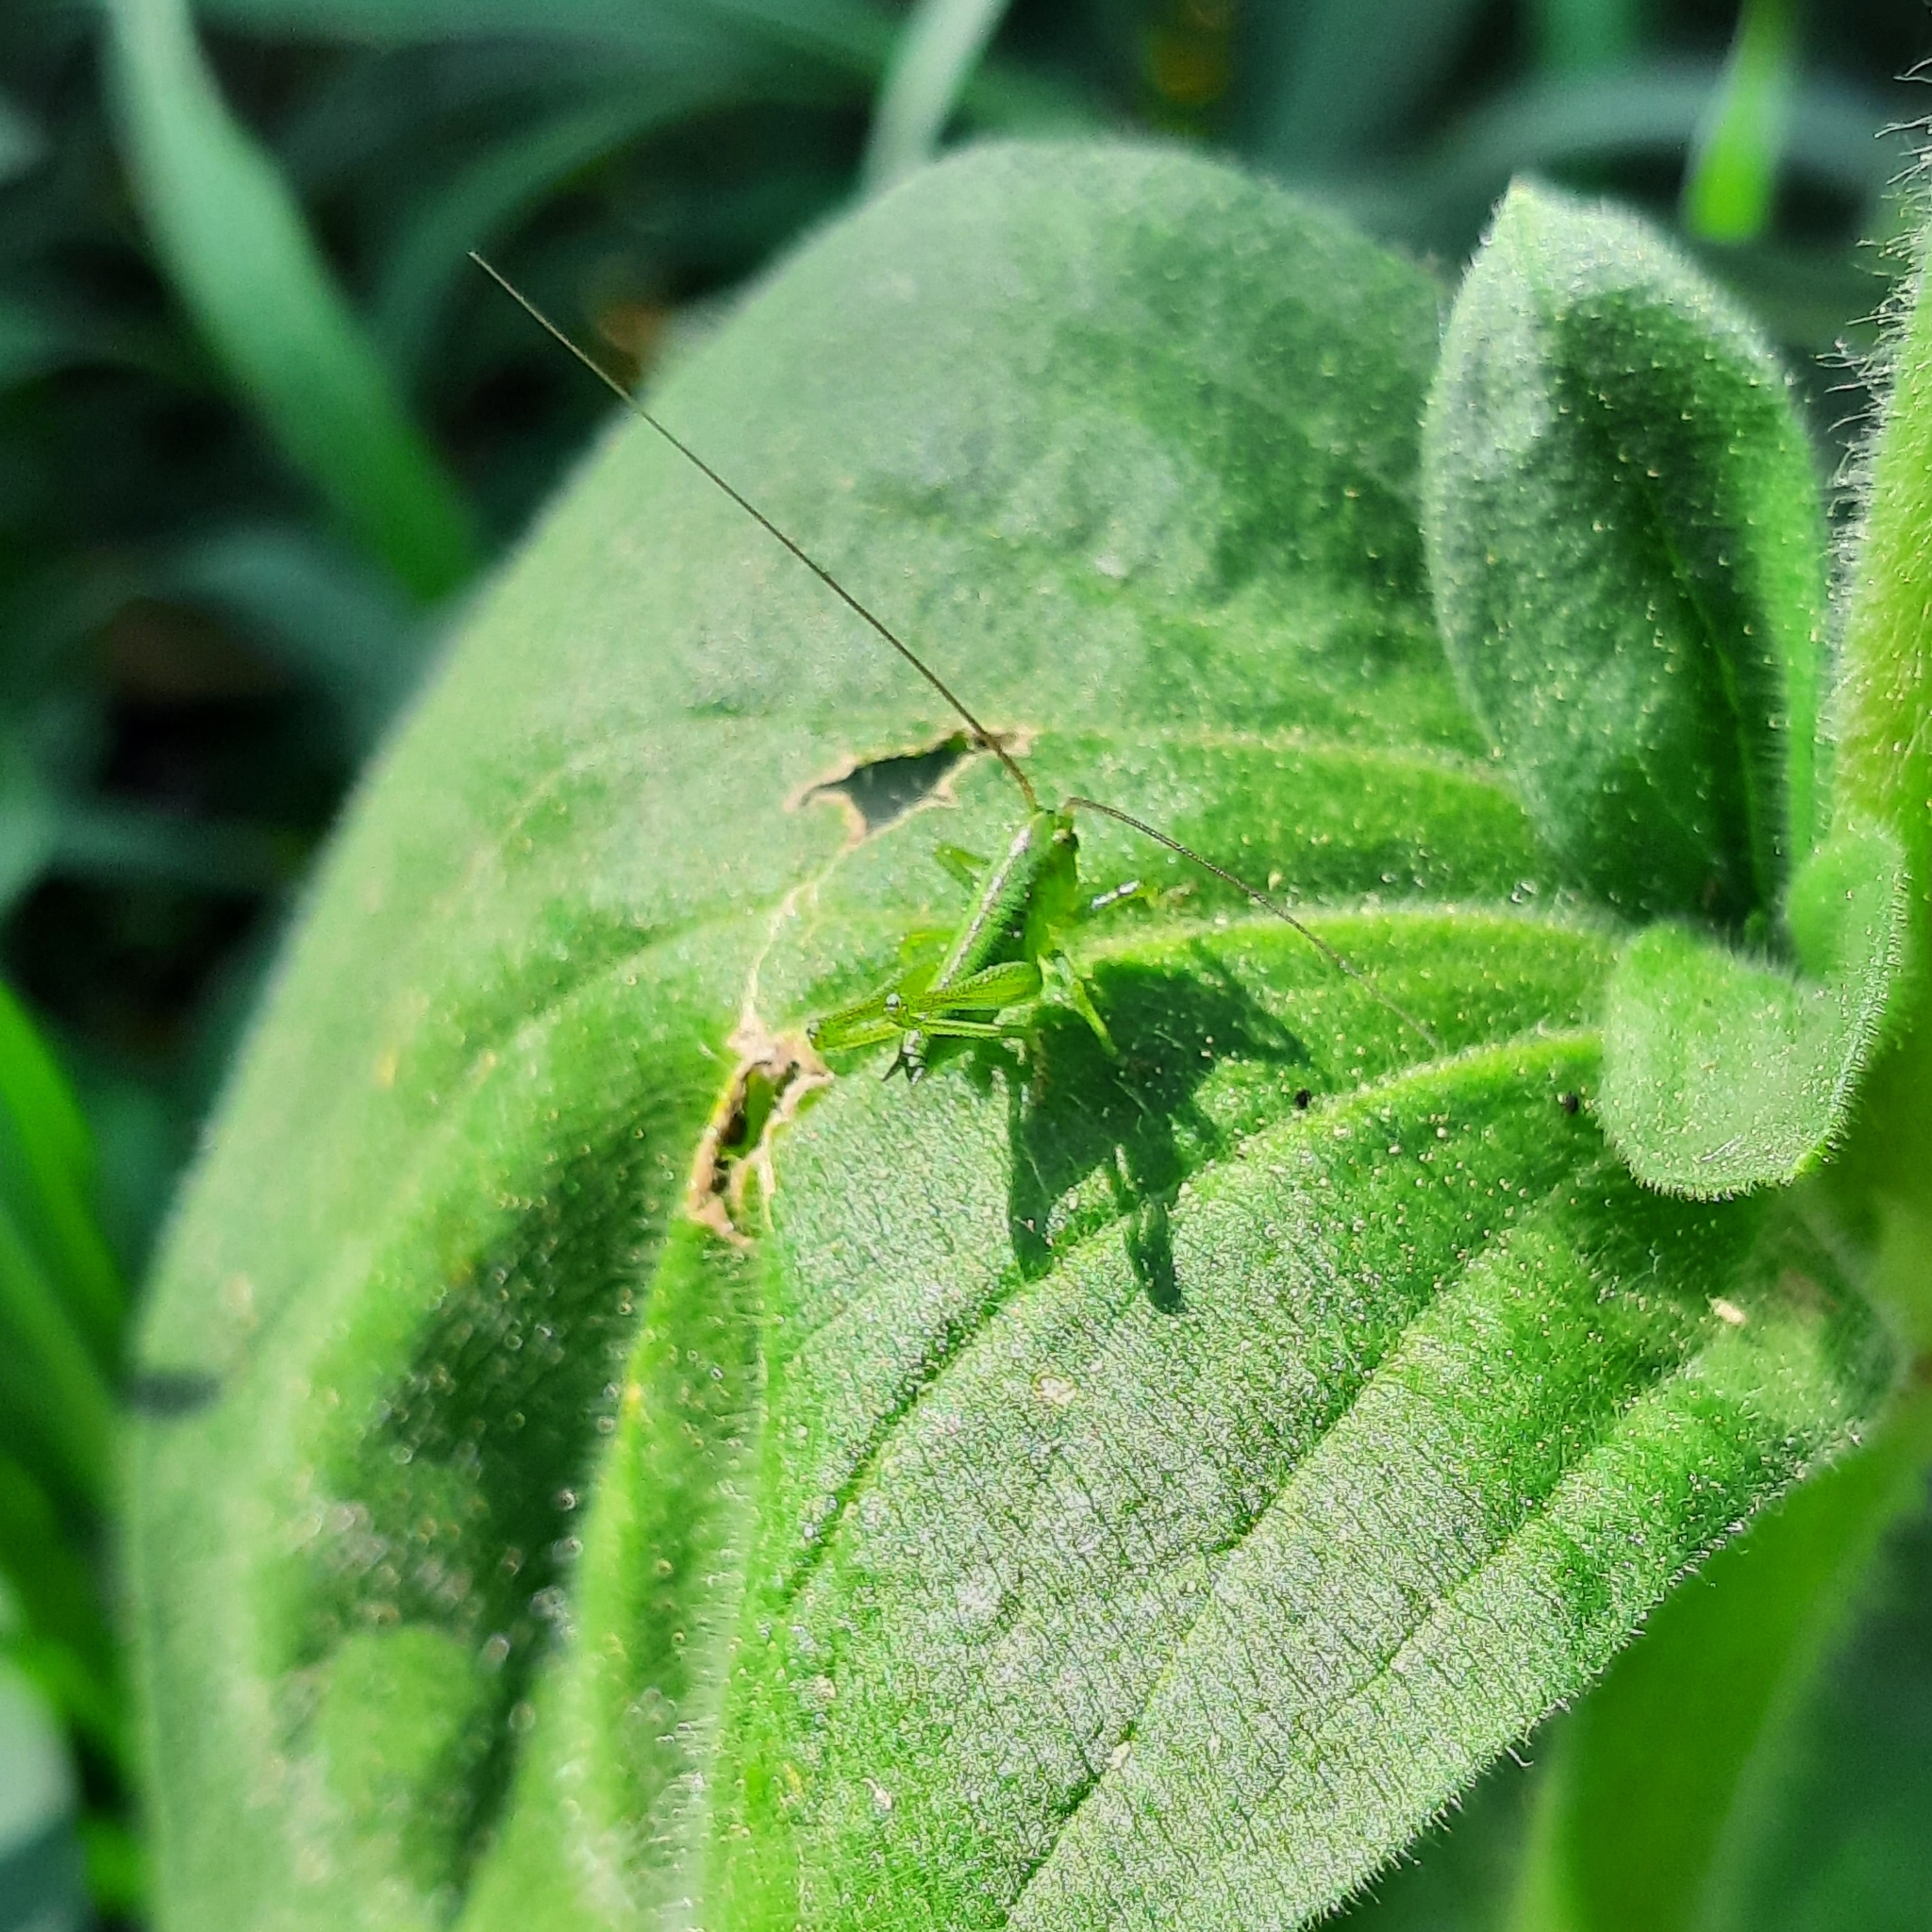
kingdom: Animalia
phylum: Arthropoda
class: Insecta
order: Orthoptera
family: Tettigoniidae
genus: Tettigonia
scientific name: Tettigonia viridissima
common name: Great green bush-cricket
